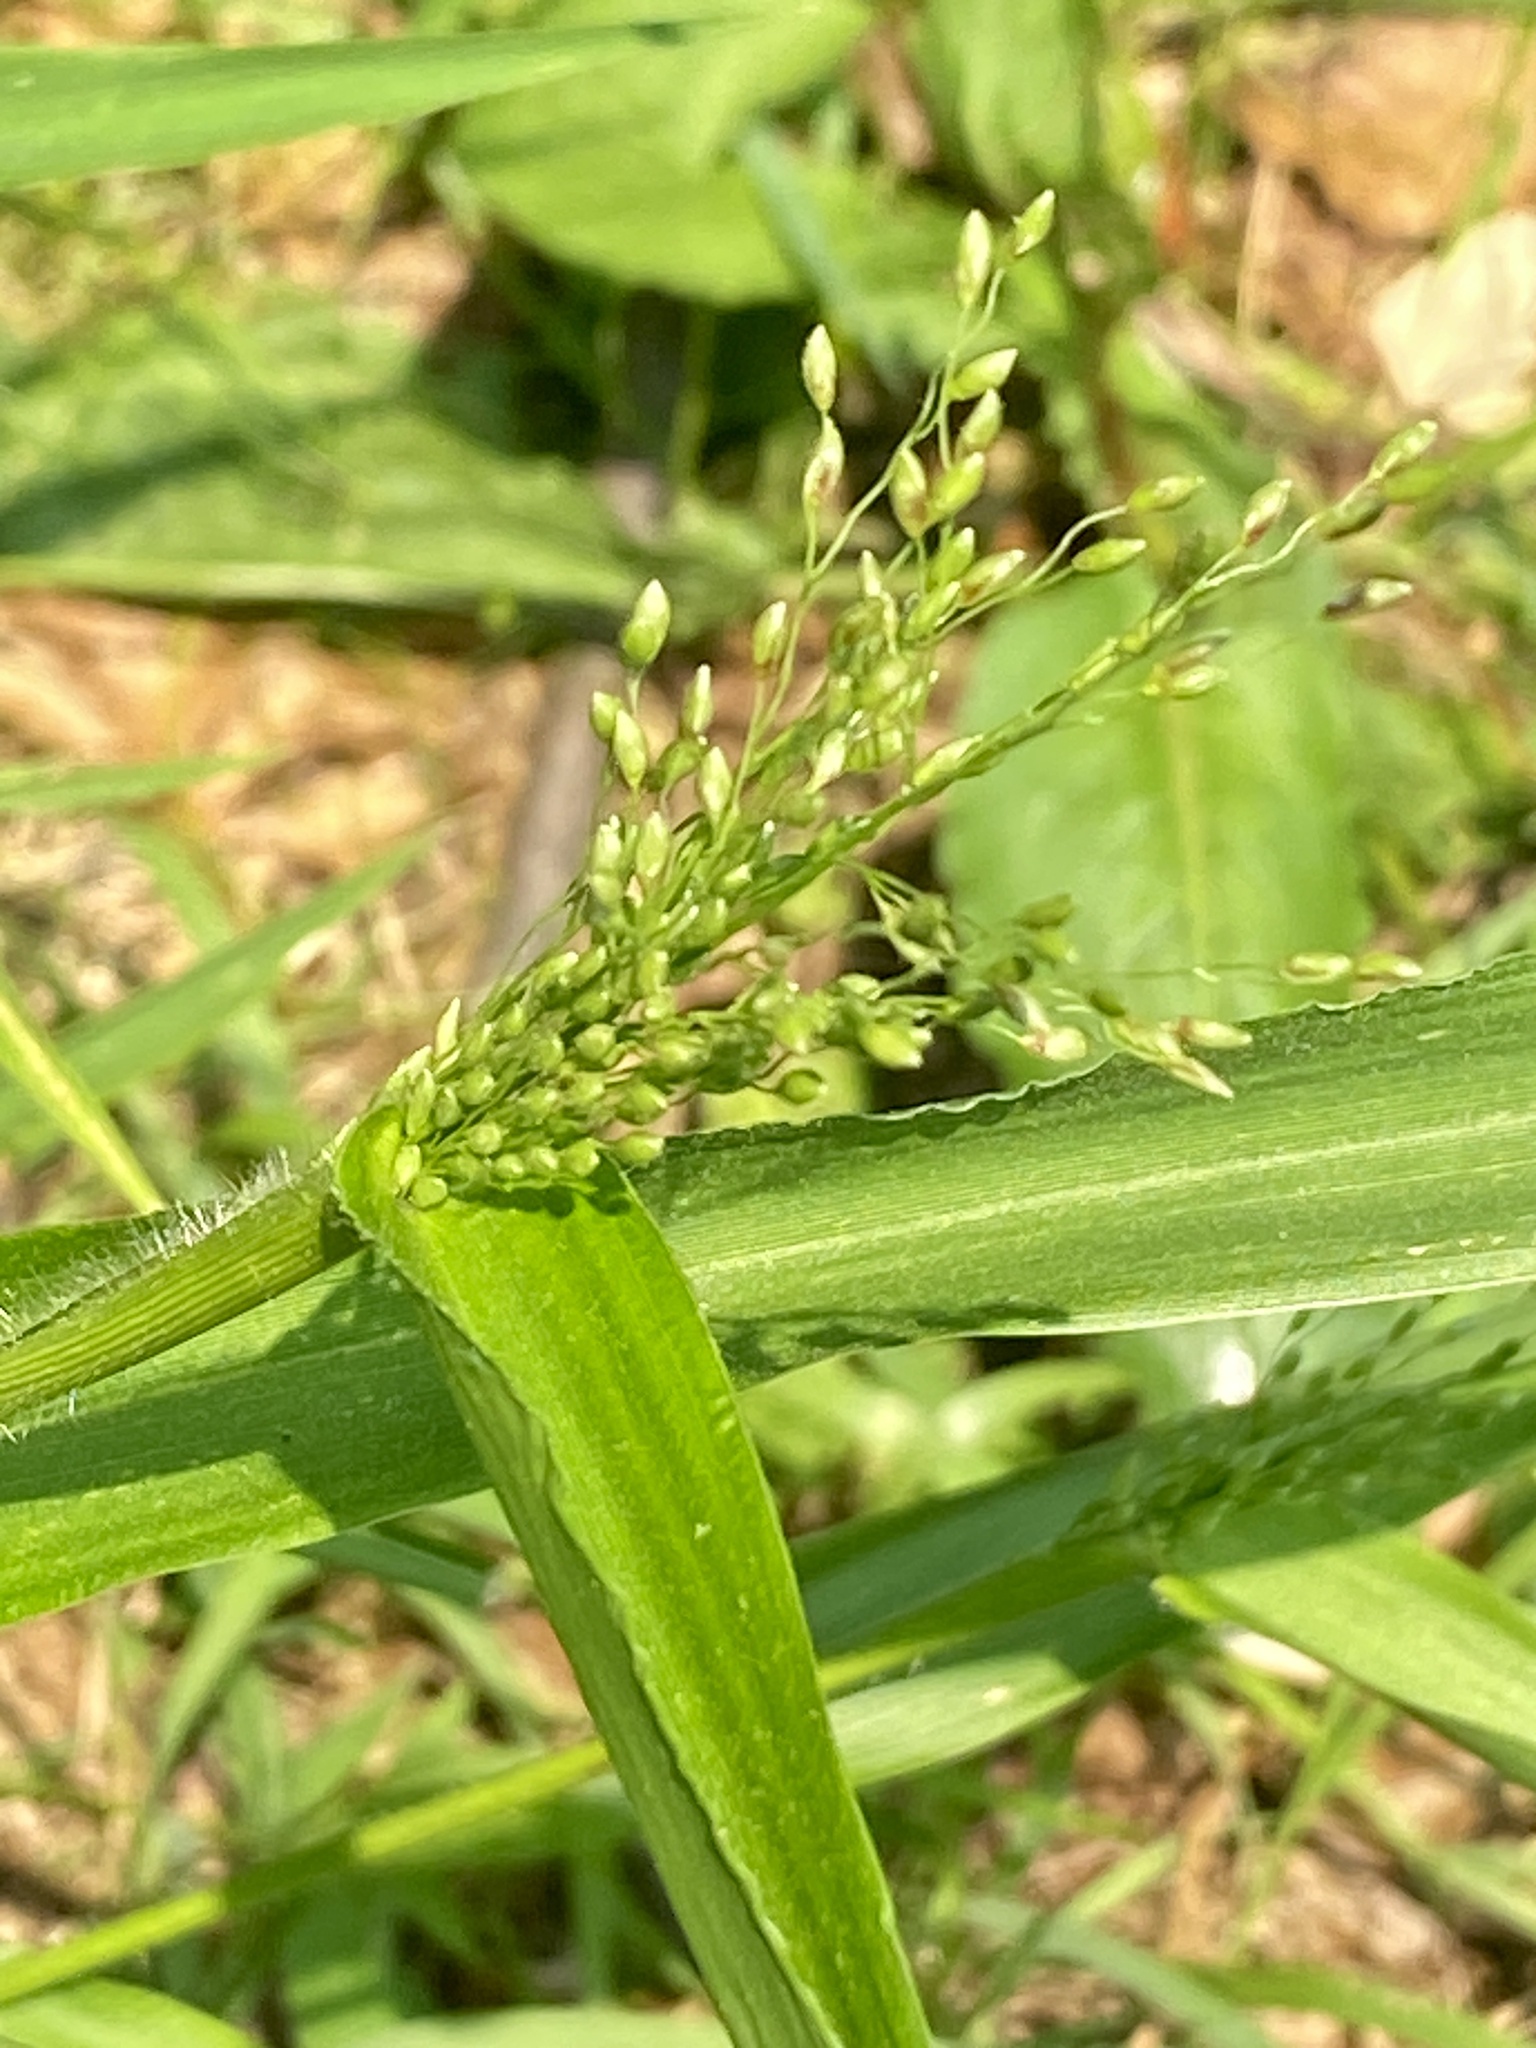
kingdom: Plantae
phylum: Tracheophyta
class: Liliopsida
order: Poales
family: Poaceae
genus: Dichanthelium
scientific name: Dichanthelium clandestinum
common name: Deer-tongue grass
